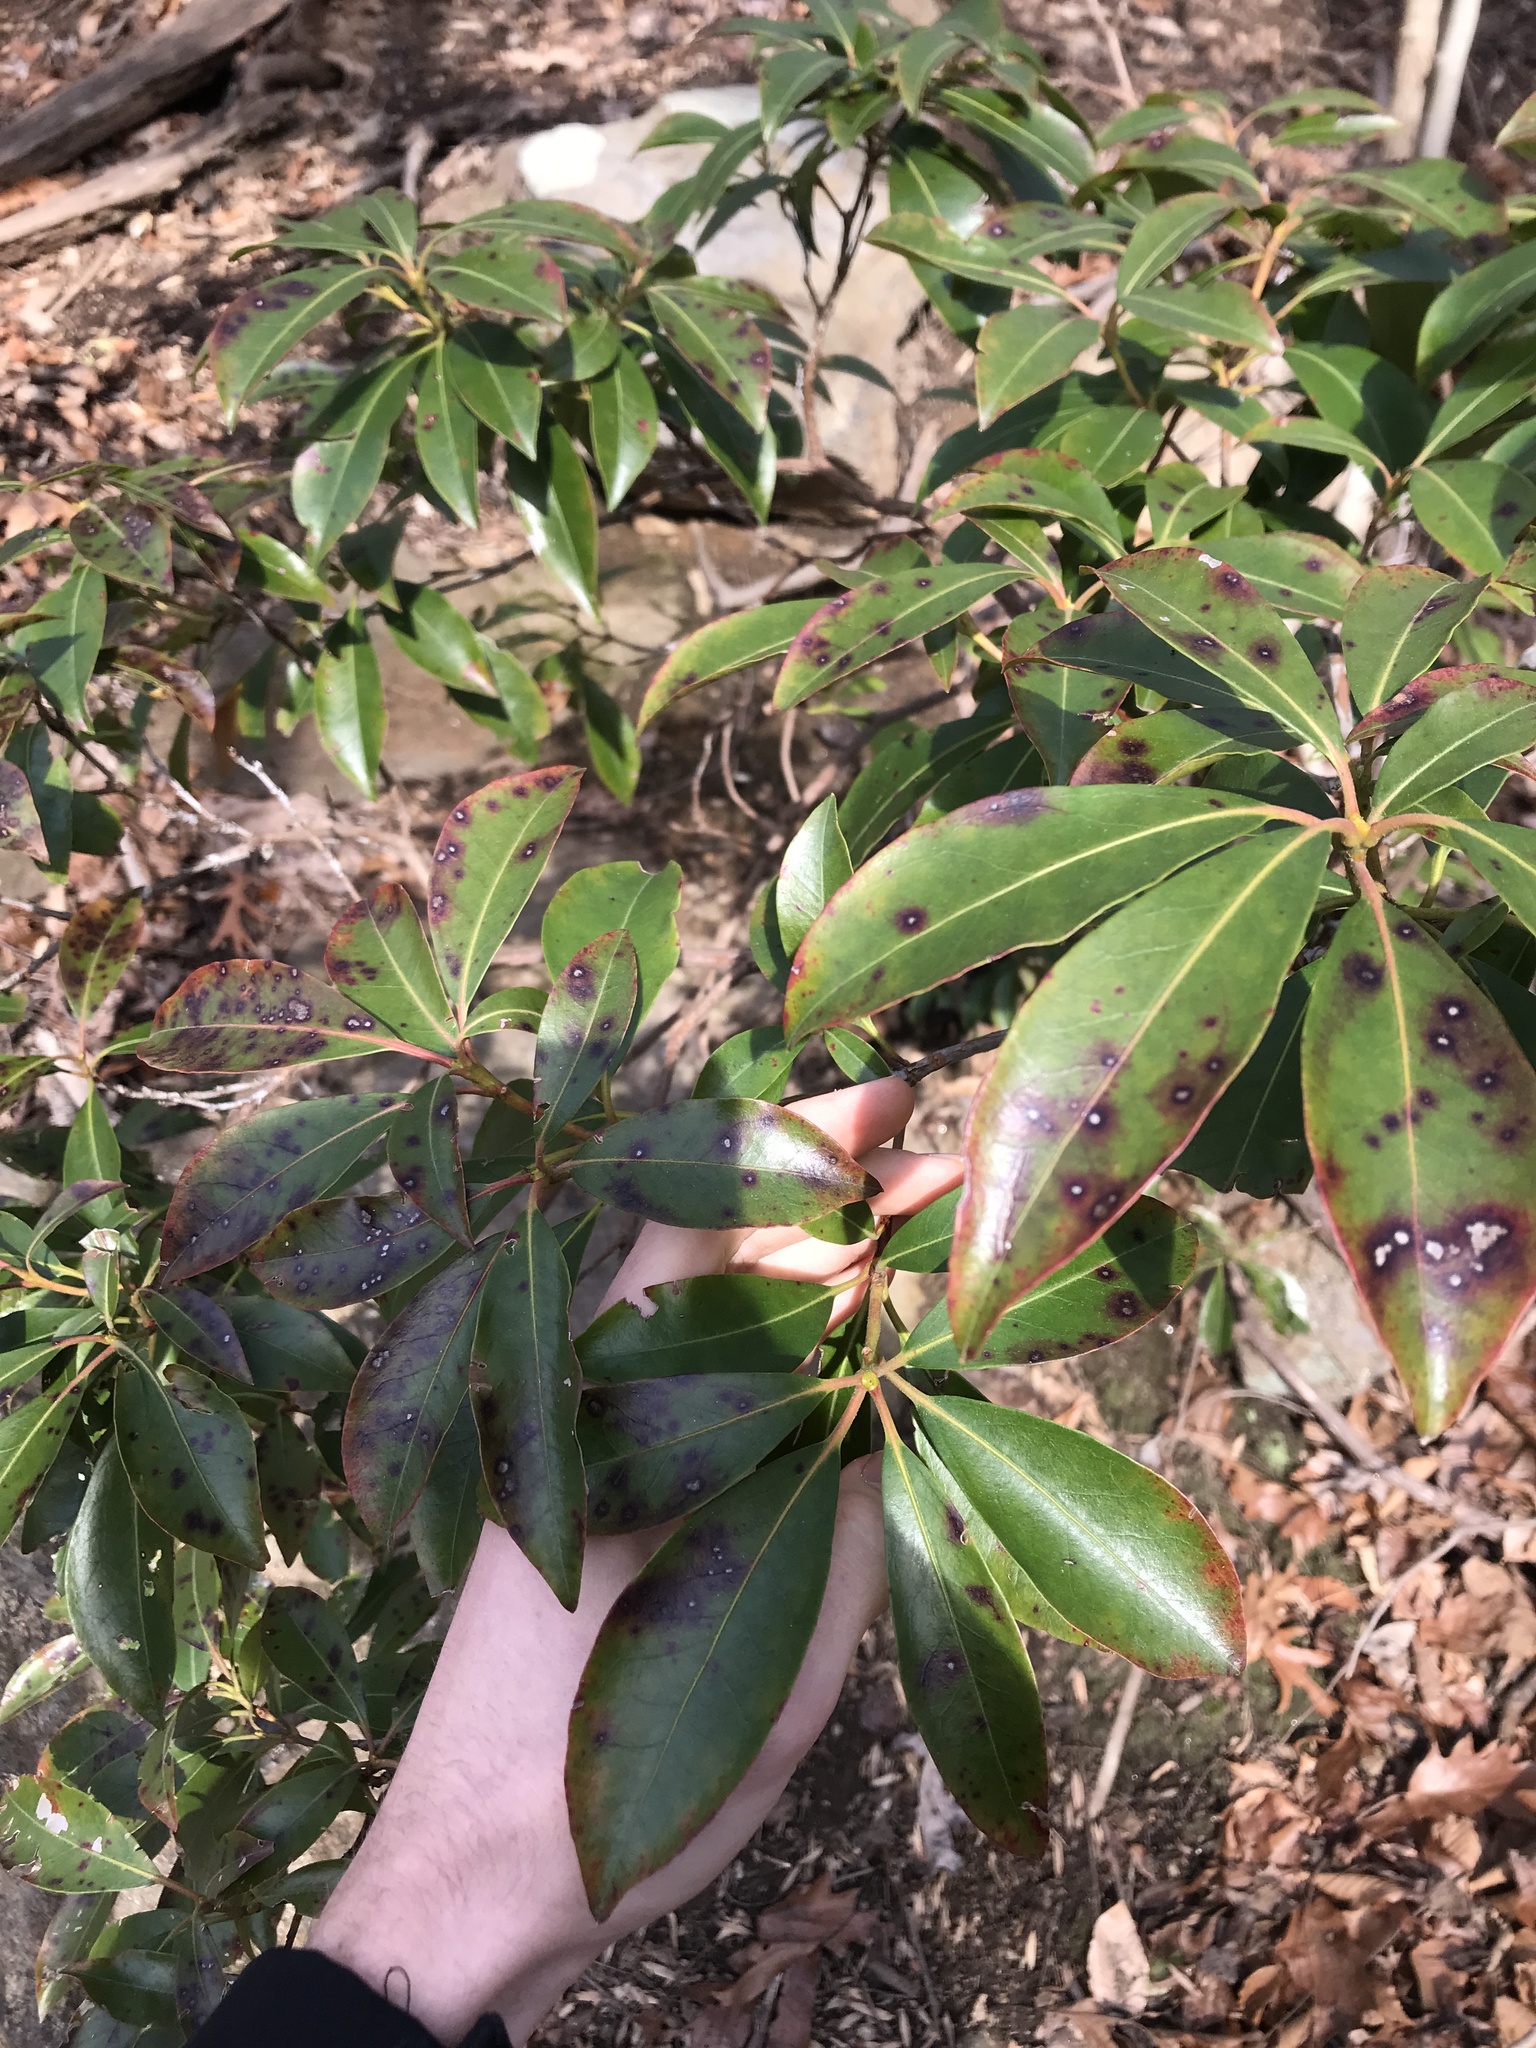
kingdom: Plantae
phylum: Tracheophyta
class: Magnoliopsida
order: Ericales
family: Ericaceae
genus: Kalmia
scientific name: Kalmia latifolia
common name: Mountain-laurel
